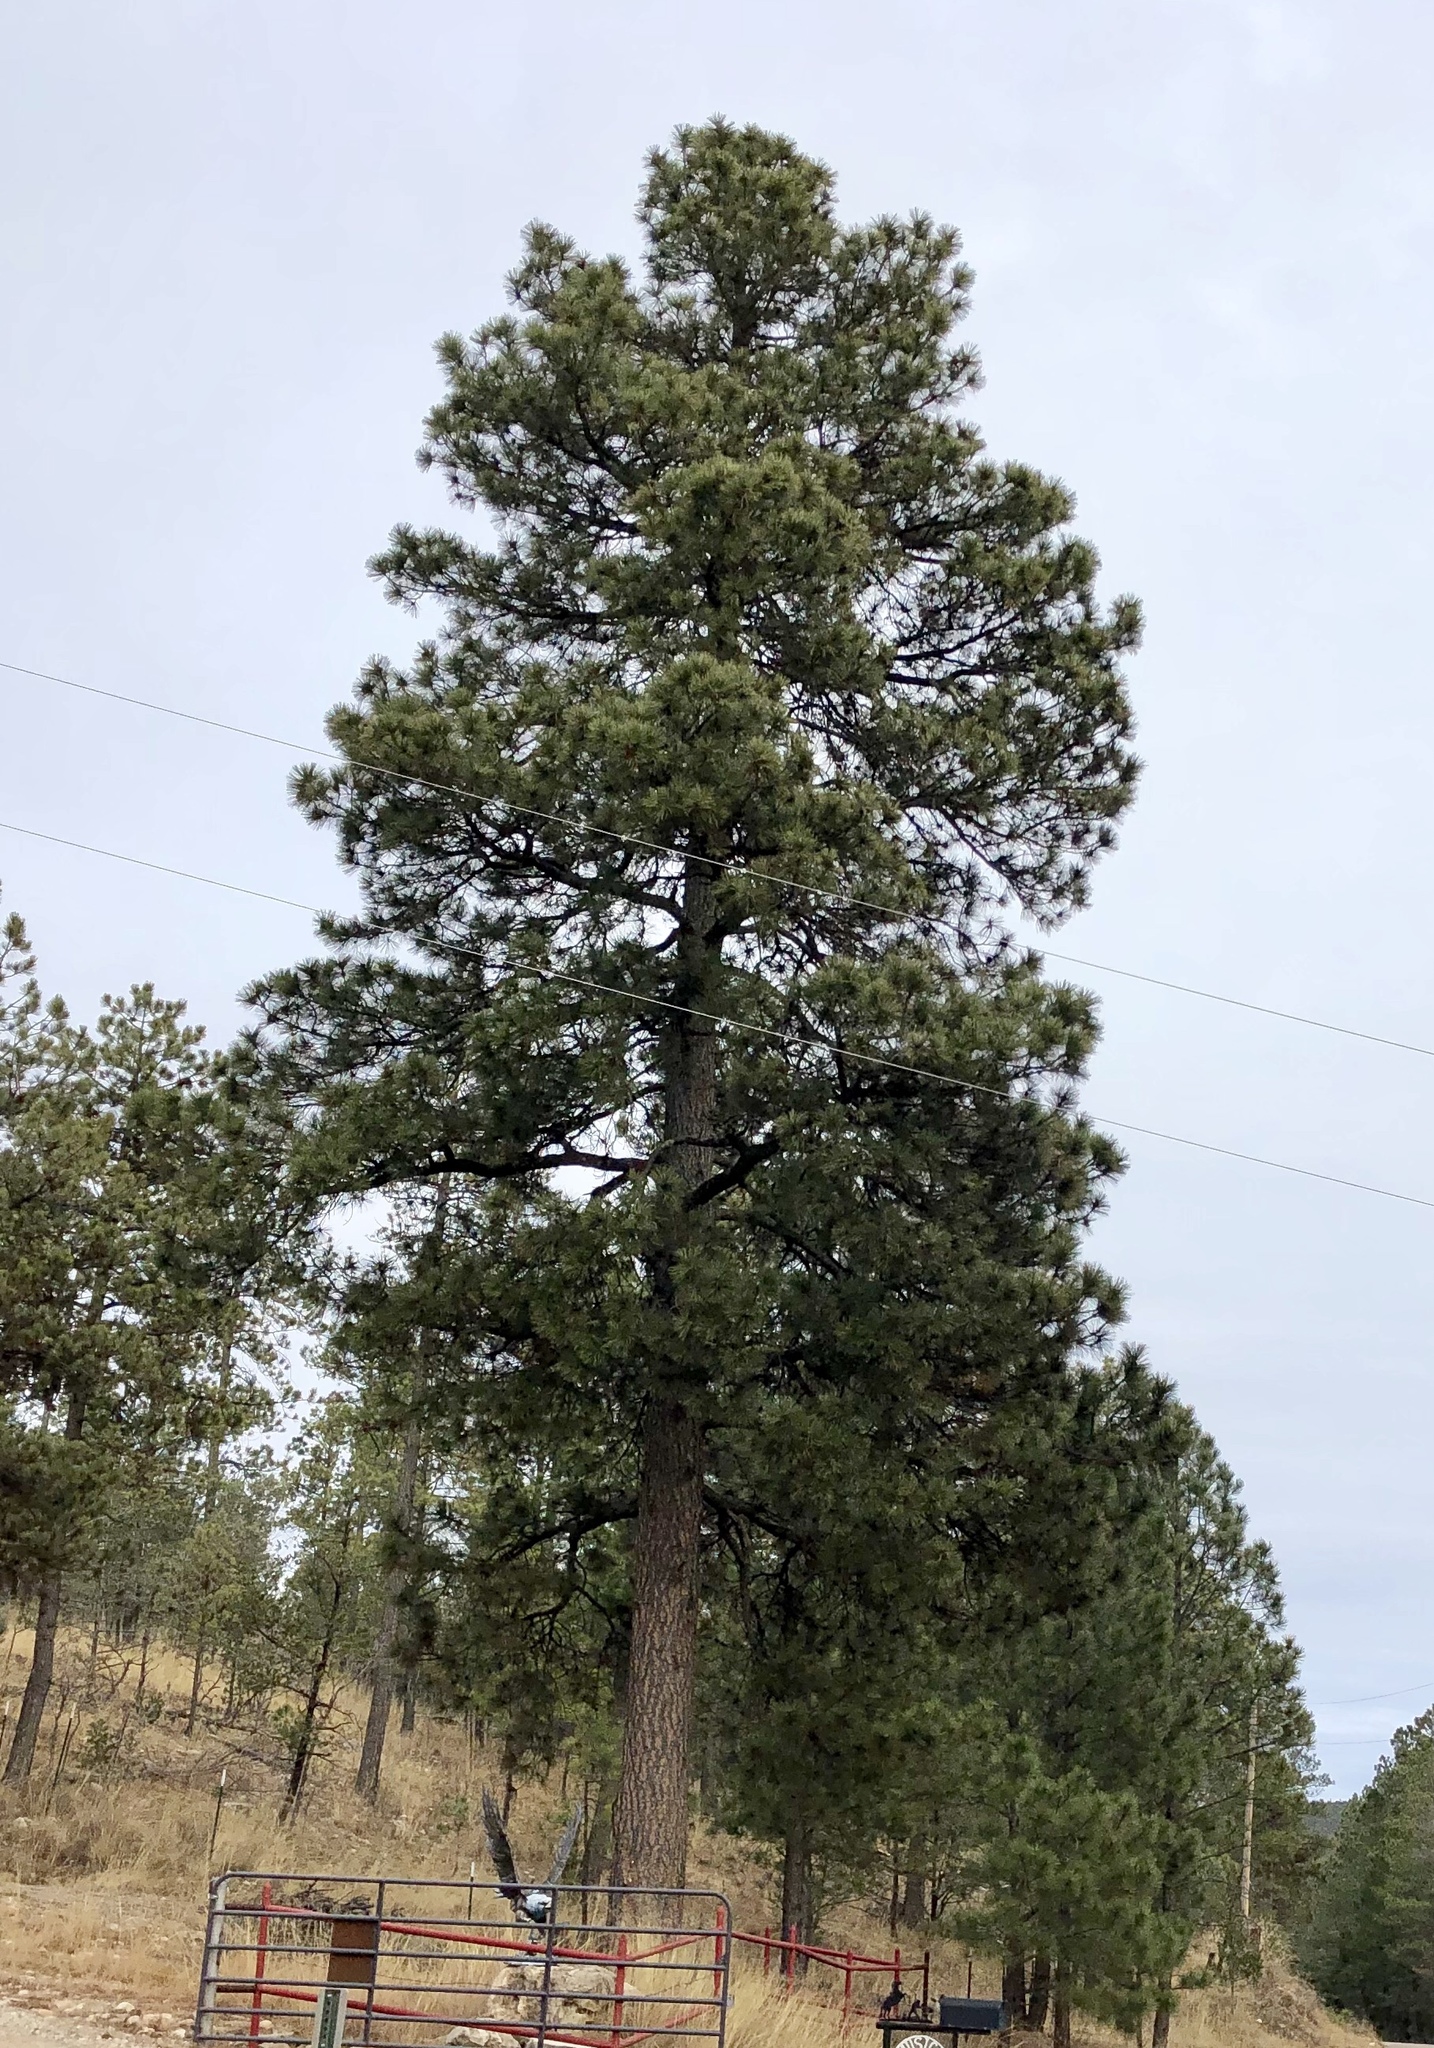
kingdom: Plantae
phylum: Tracheophyta
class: Pinopsida
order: Pinales
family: Pinaceae
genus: Pinus
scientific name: Pinus ponderosa
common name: Western yellow-pine
